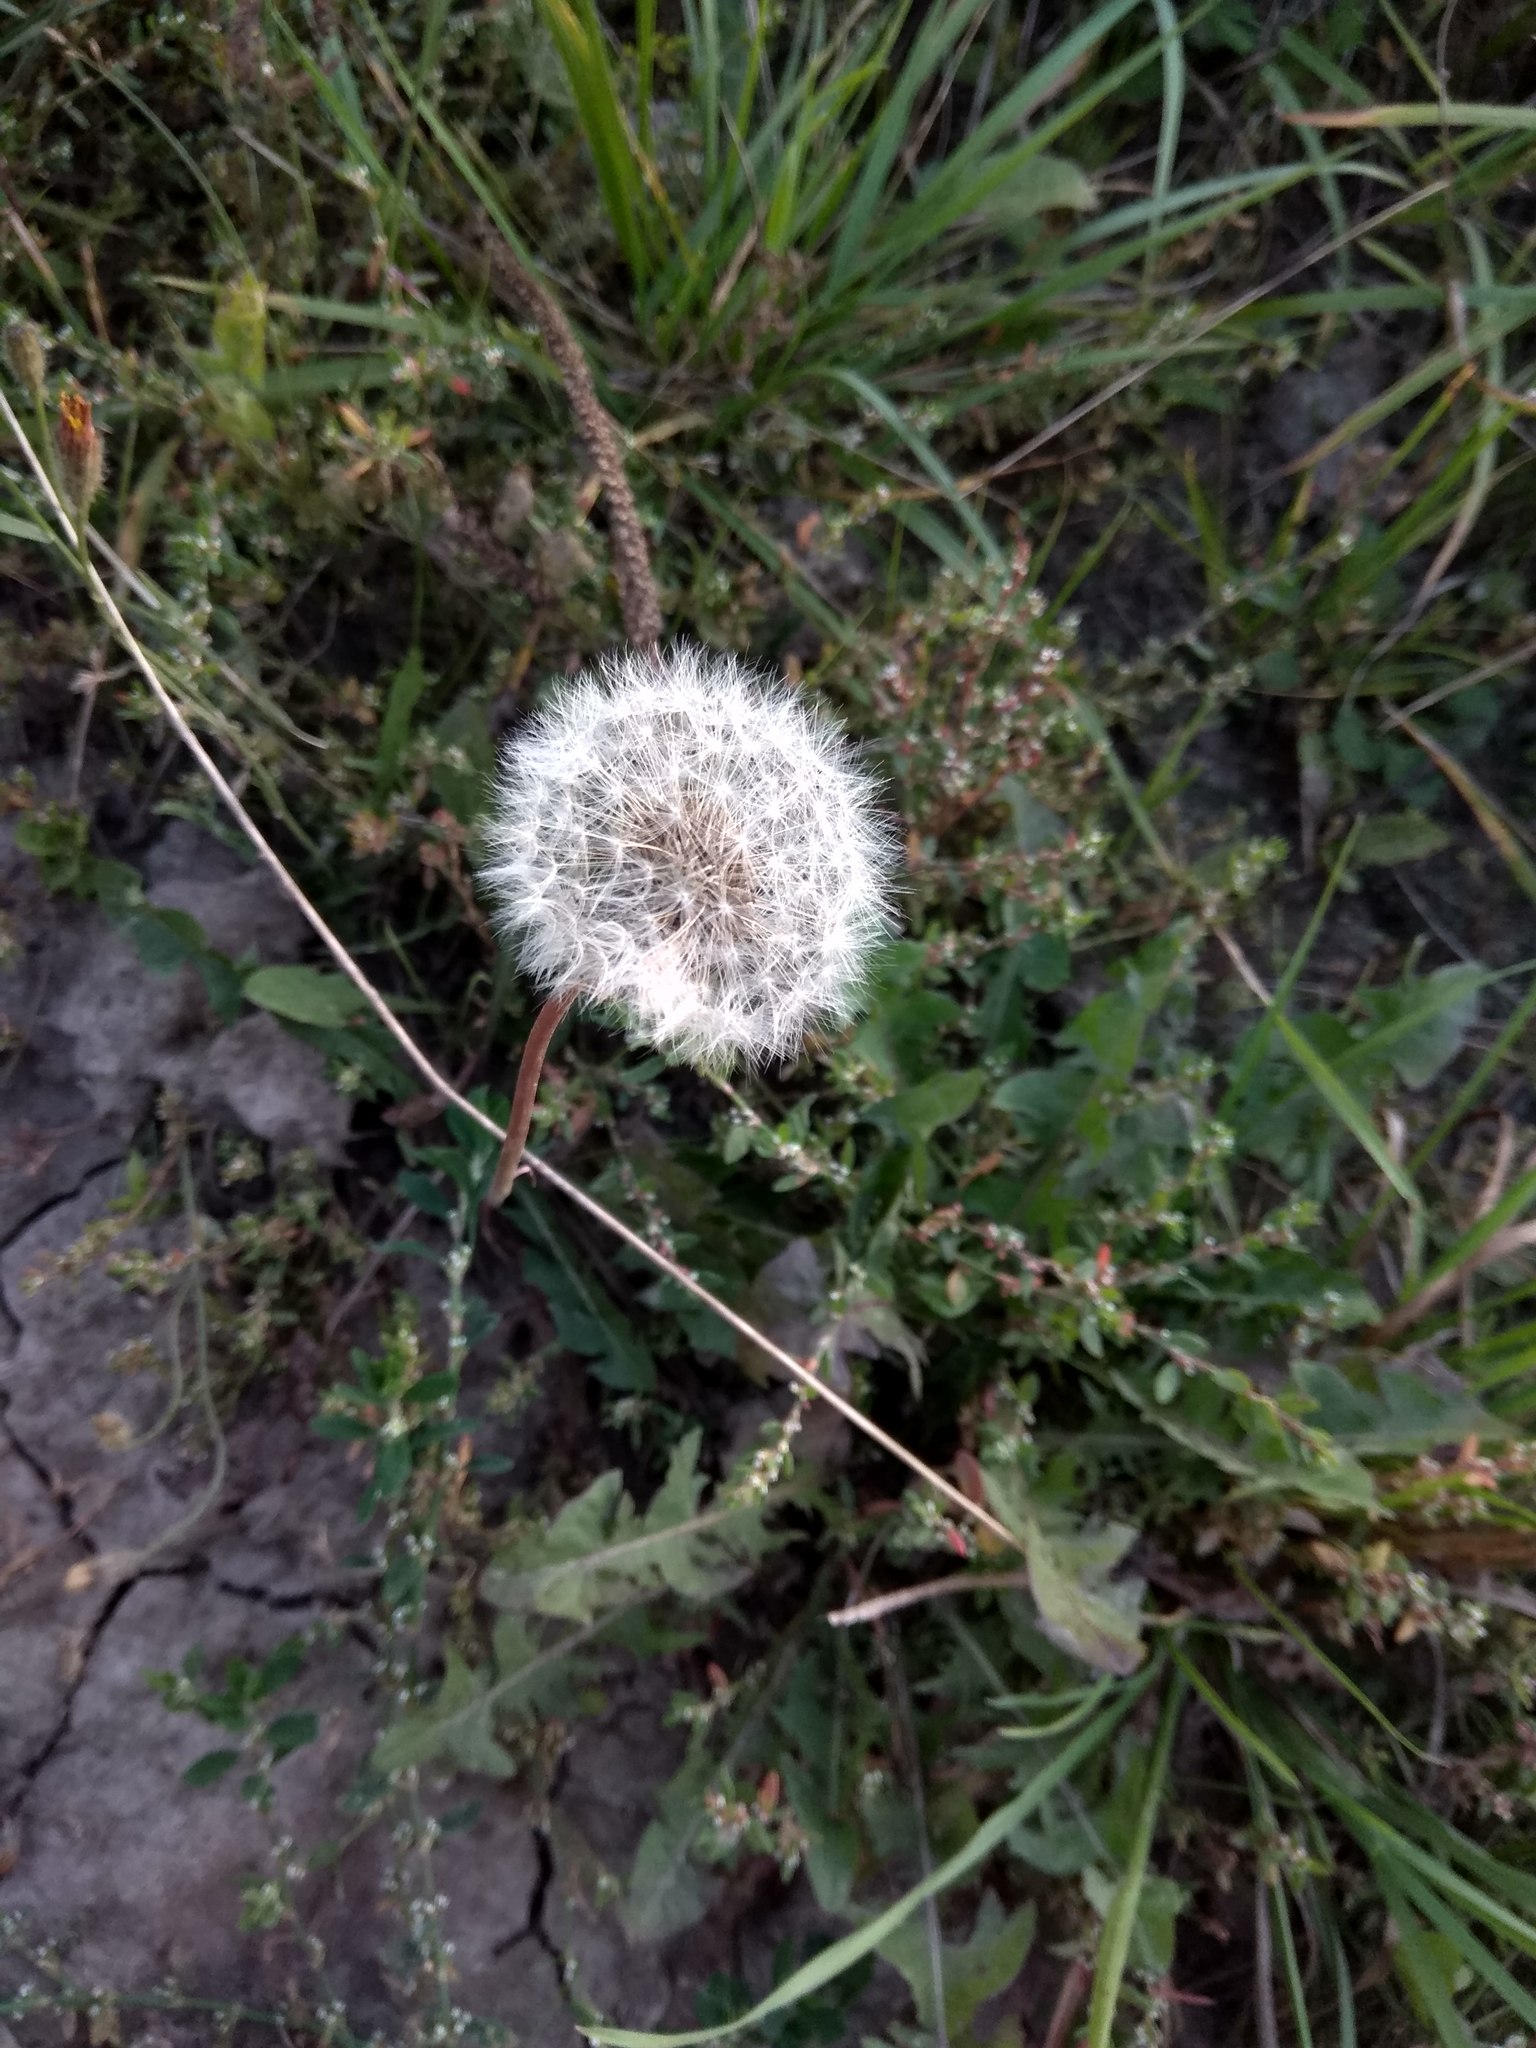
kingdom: Plantae
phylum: Tracheophyta
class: Magnoliopsida
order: Asterales
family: Asteraceae
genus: Taraxacum
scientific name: Taraxacum officinale
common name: Common dandelion
